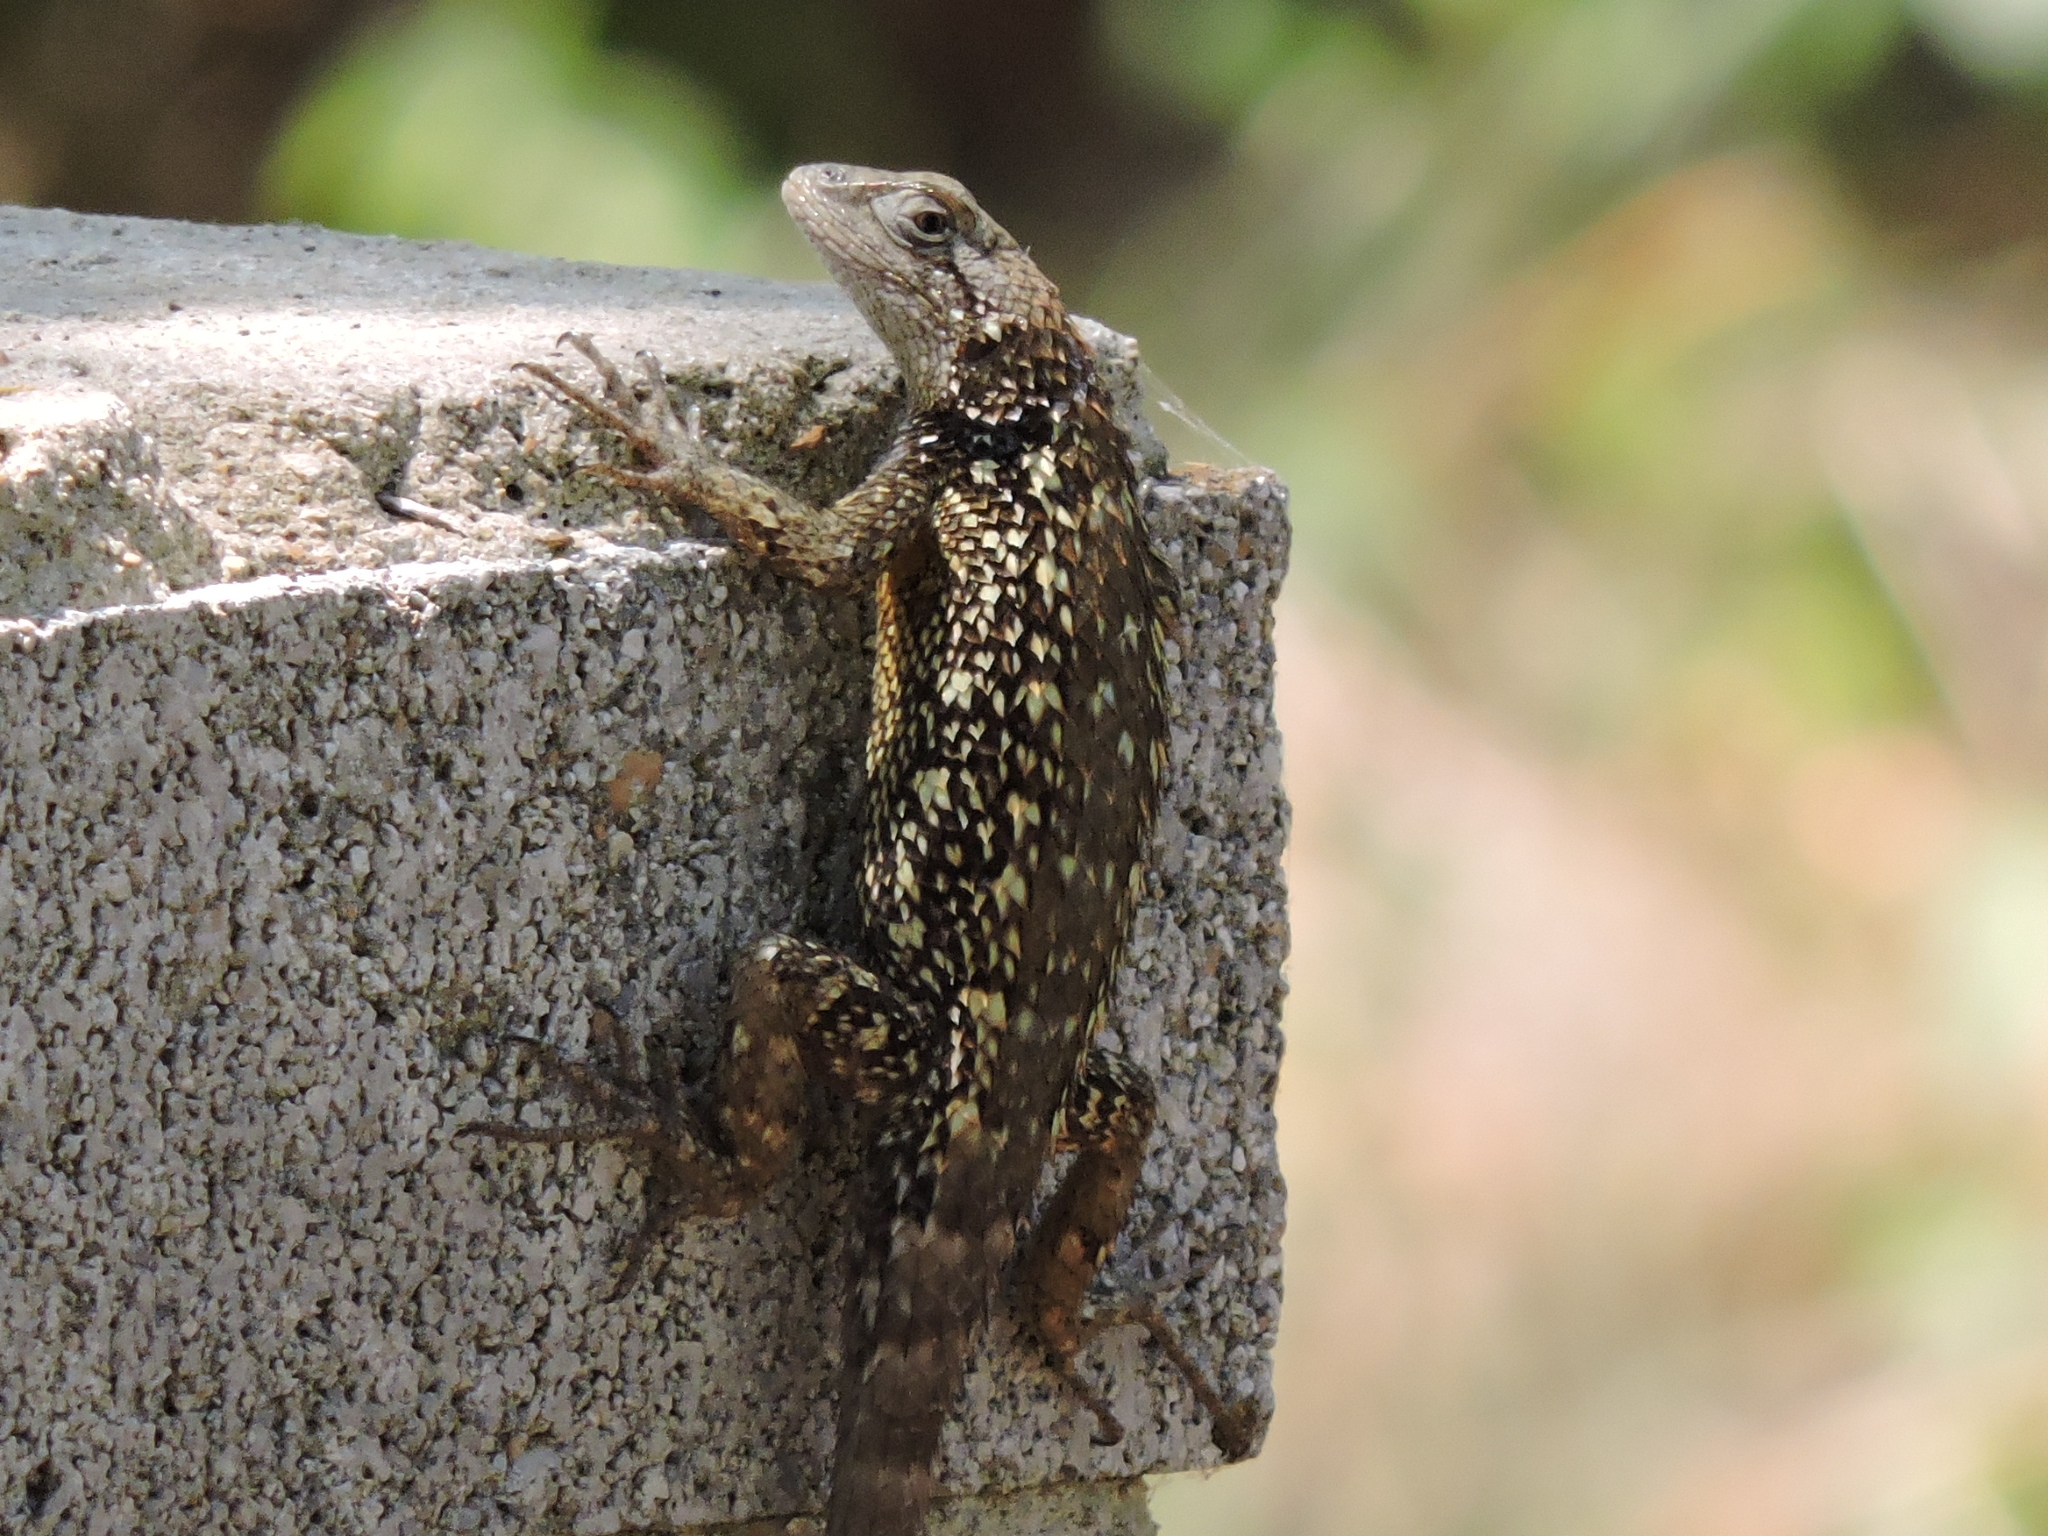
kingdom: Animalia
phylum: Chordata
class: Squamata
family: Phrynosomatidae
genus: Sceloporus
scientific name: Sceloporus olivaceus
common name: Texas spiny lizard
